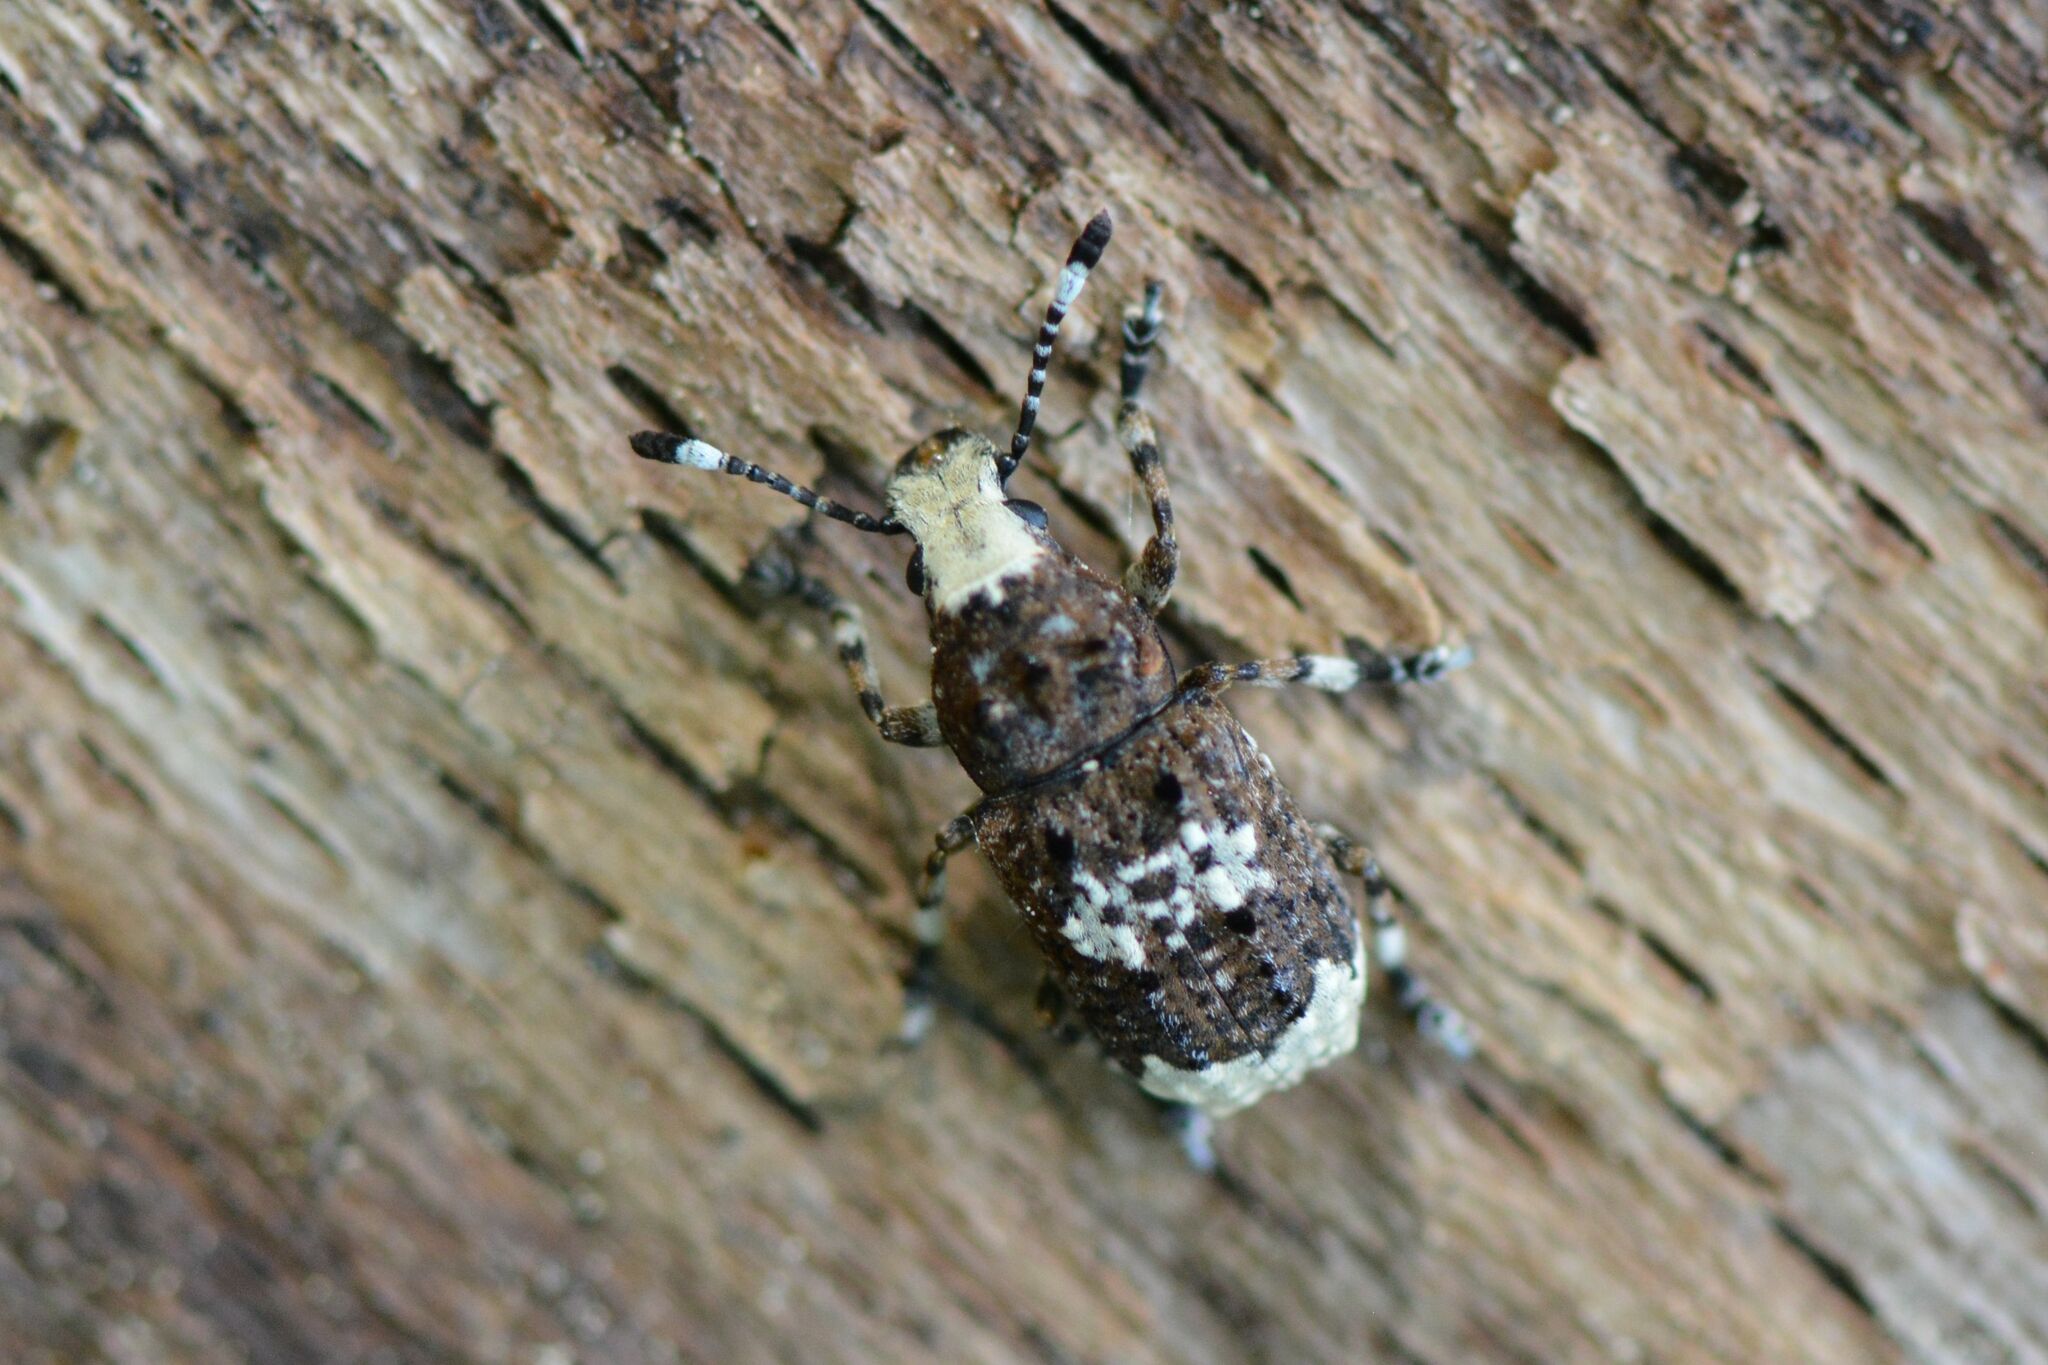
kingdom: Animalia
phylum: Arthropoda
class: Insecta
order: Coleoptera
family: Anthribidae
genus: Platystomos
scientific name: Platystomos albinus
